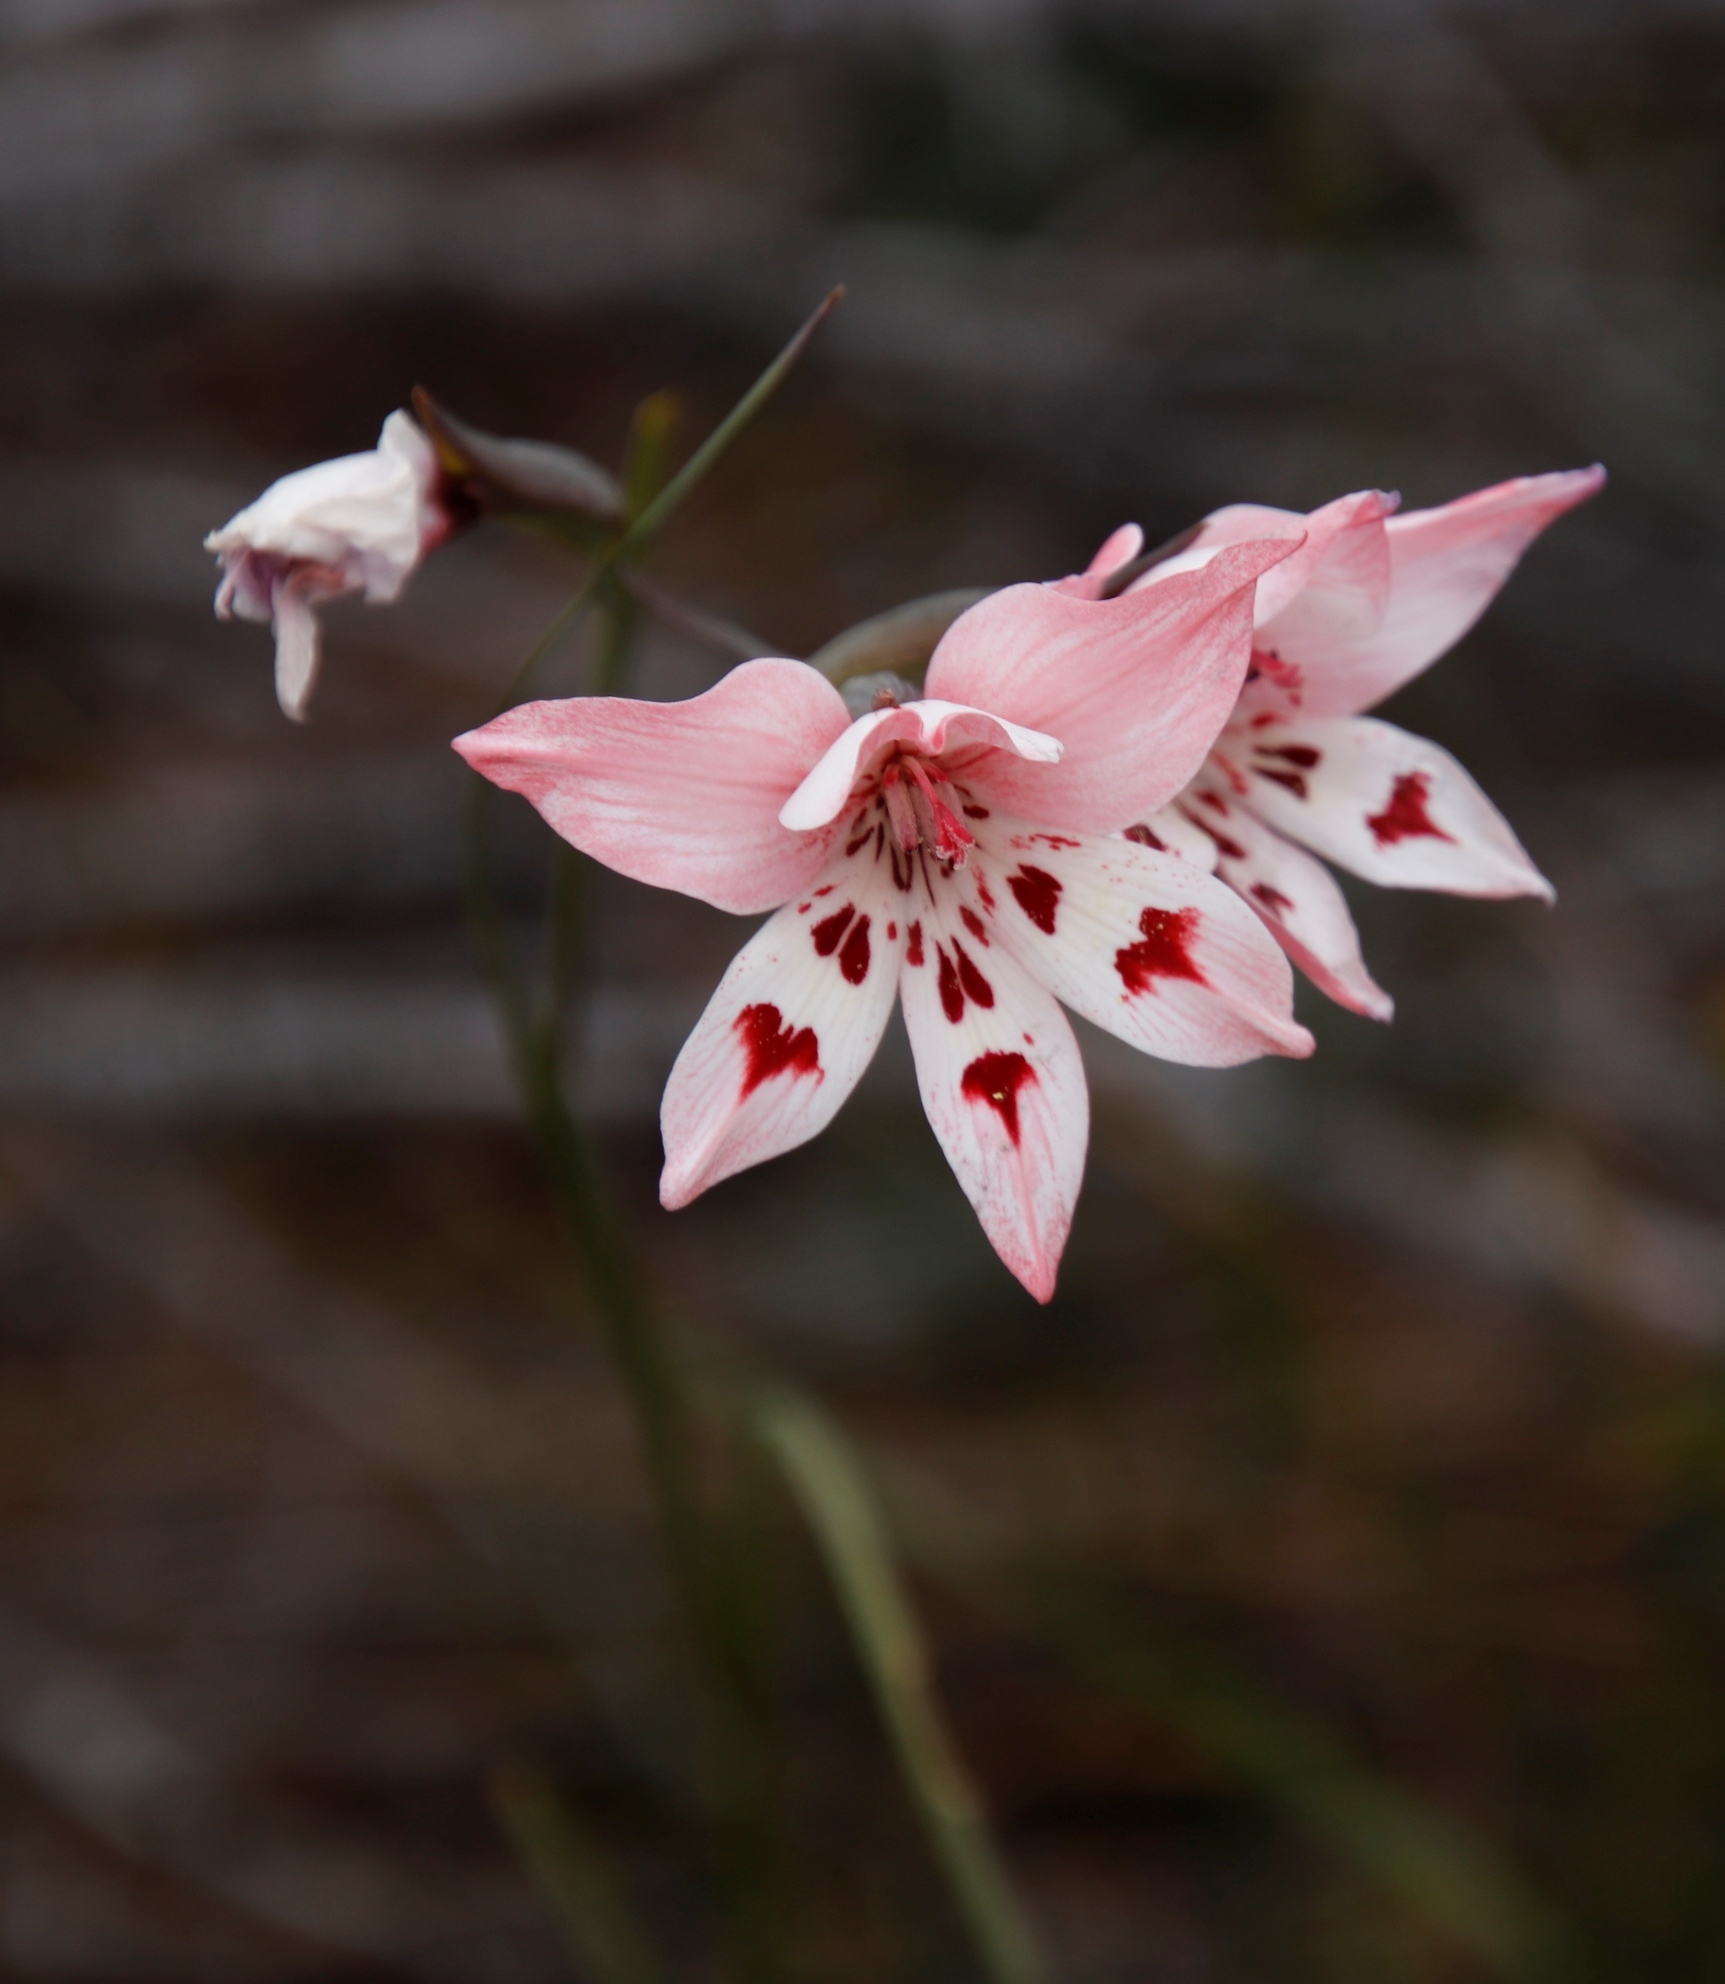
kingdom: Plantae
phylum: Tracheophyta
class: Liliopsida
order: Asparagales
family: Iridaceae
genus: Gladiolus
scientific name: Gladiolus debilis
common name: Painted-lady
